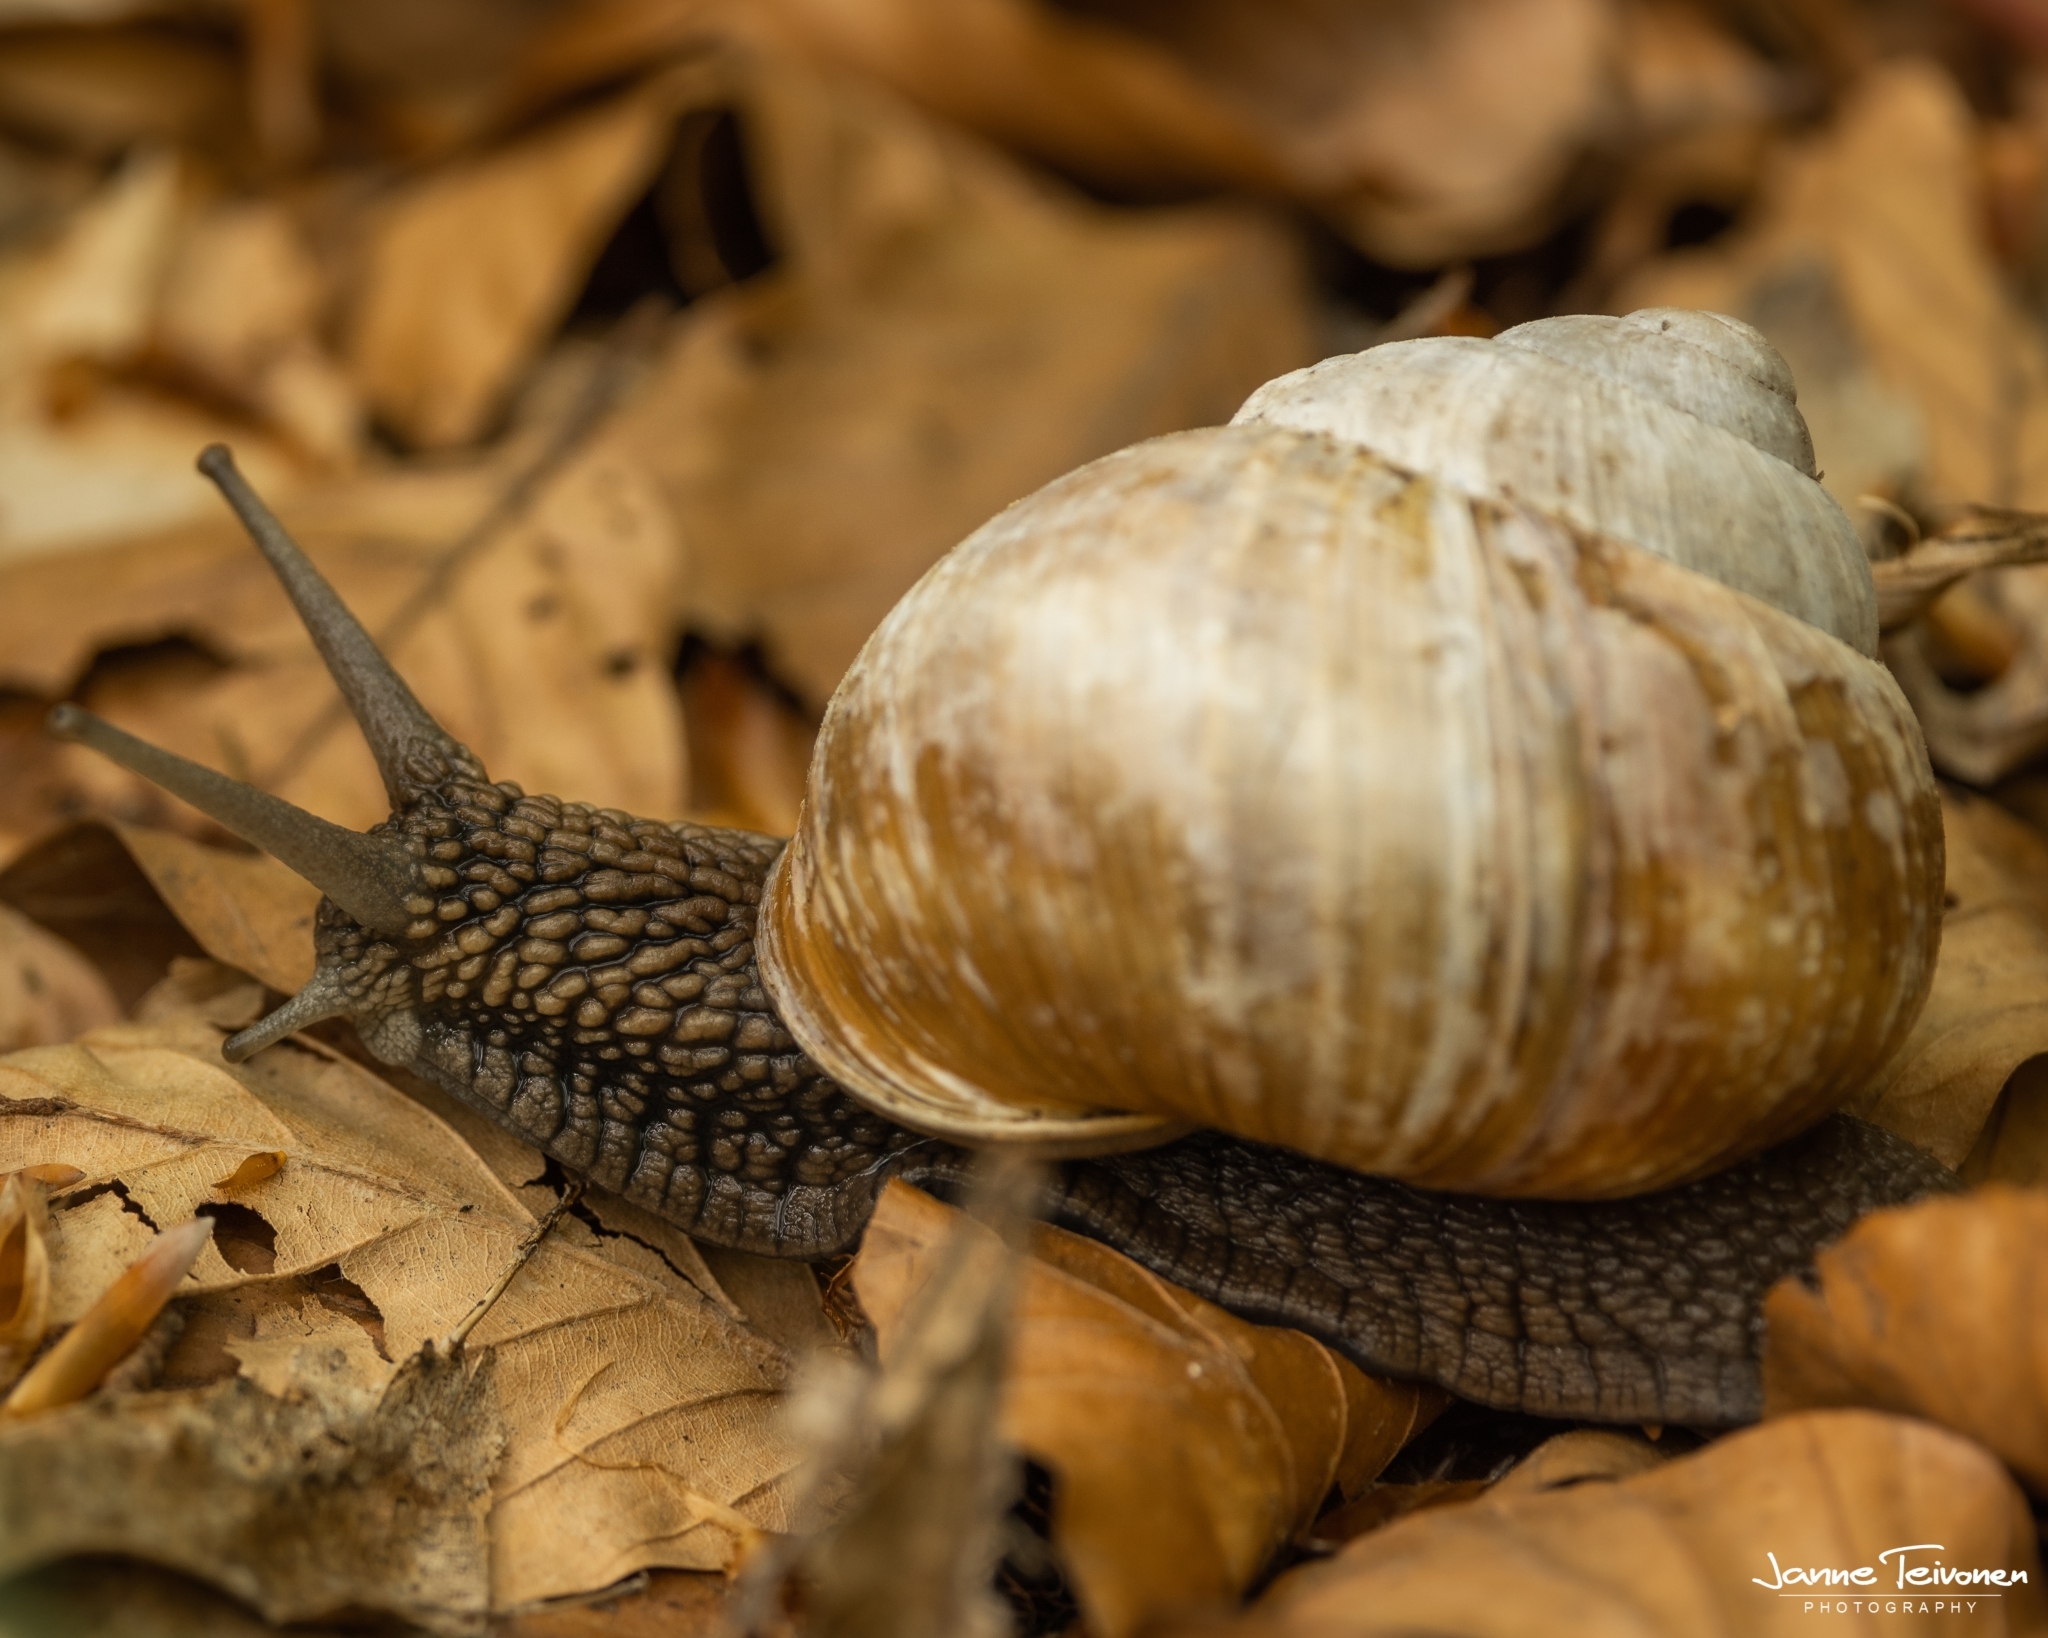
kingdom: Animalia
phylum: Mollusca
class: Gastropoda
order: Stylommatophora
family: Helicidae
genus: Helix
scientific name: Helix vladika
